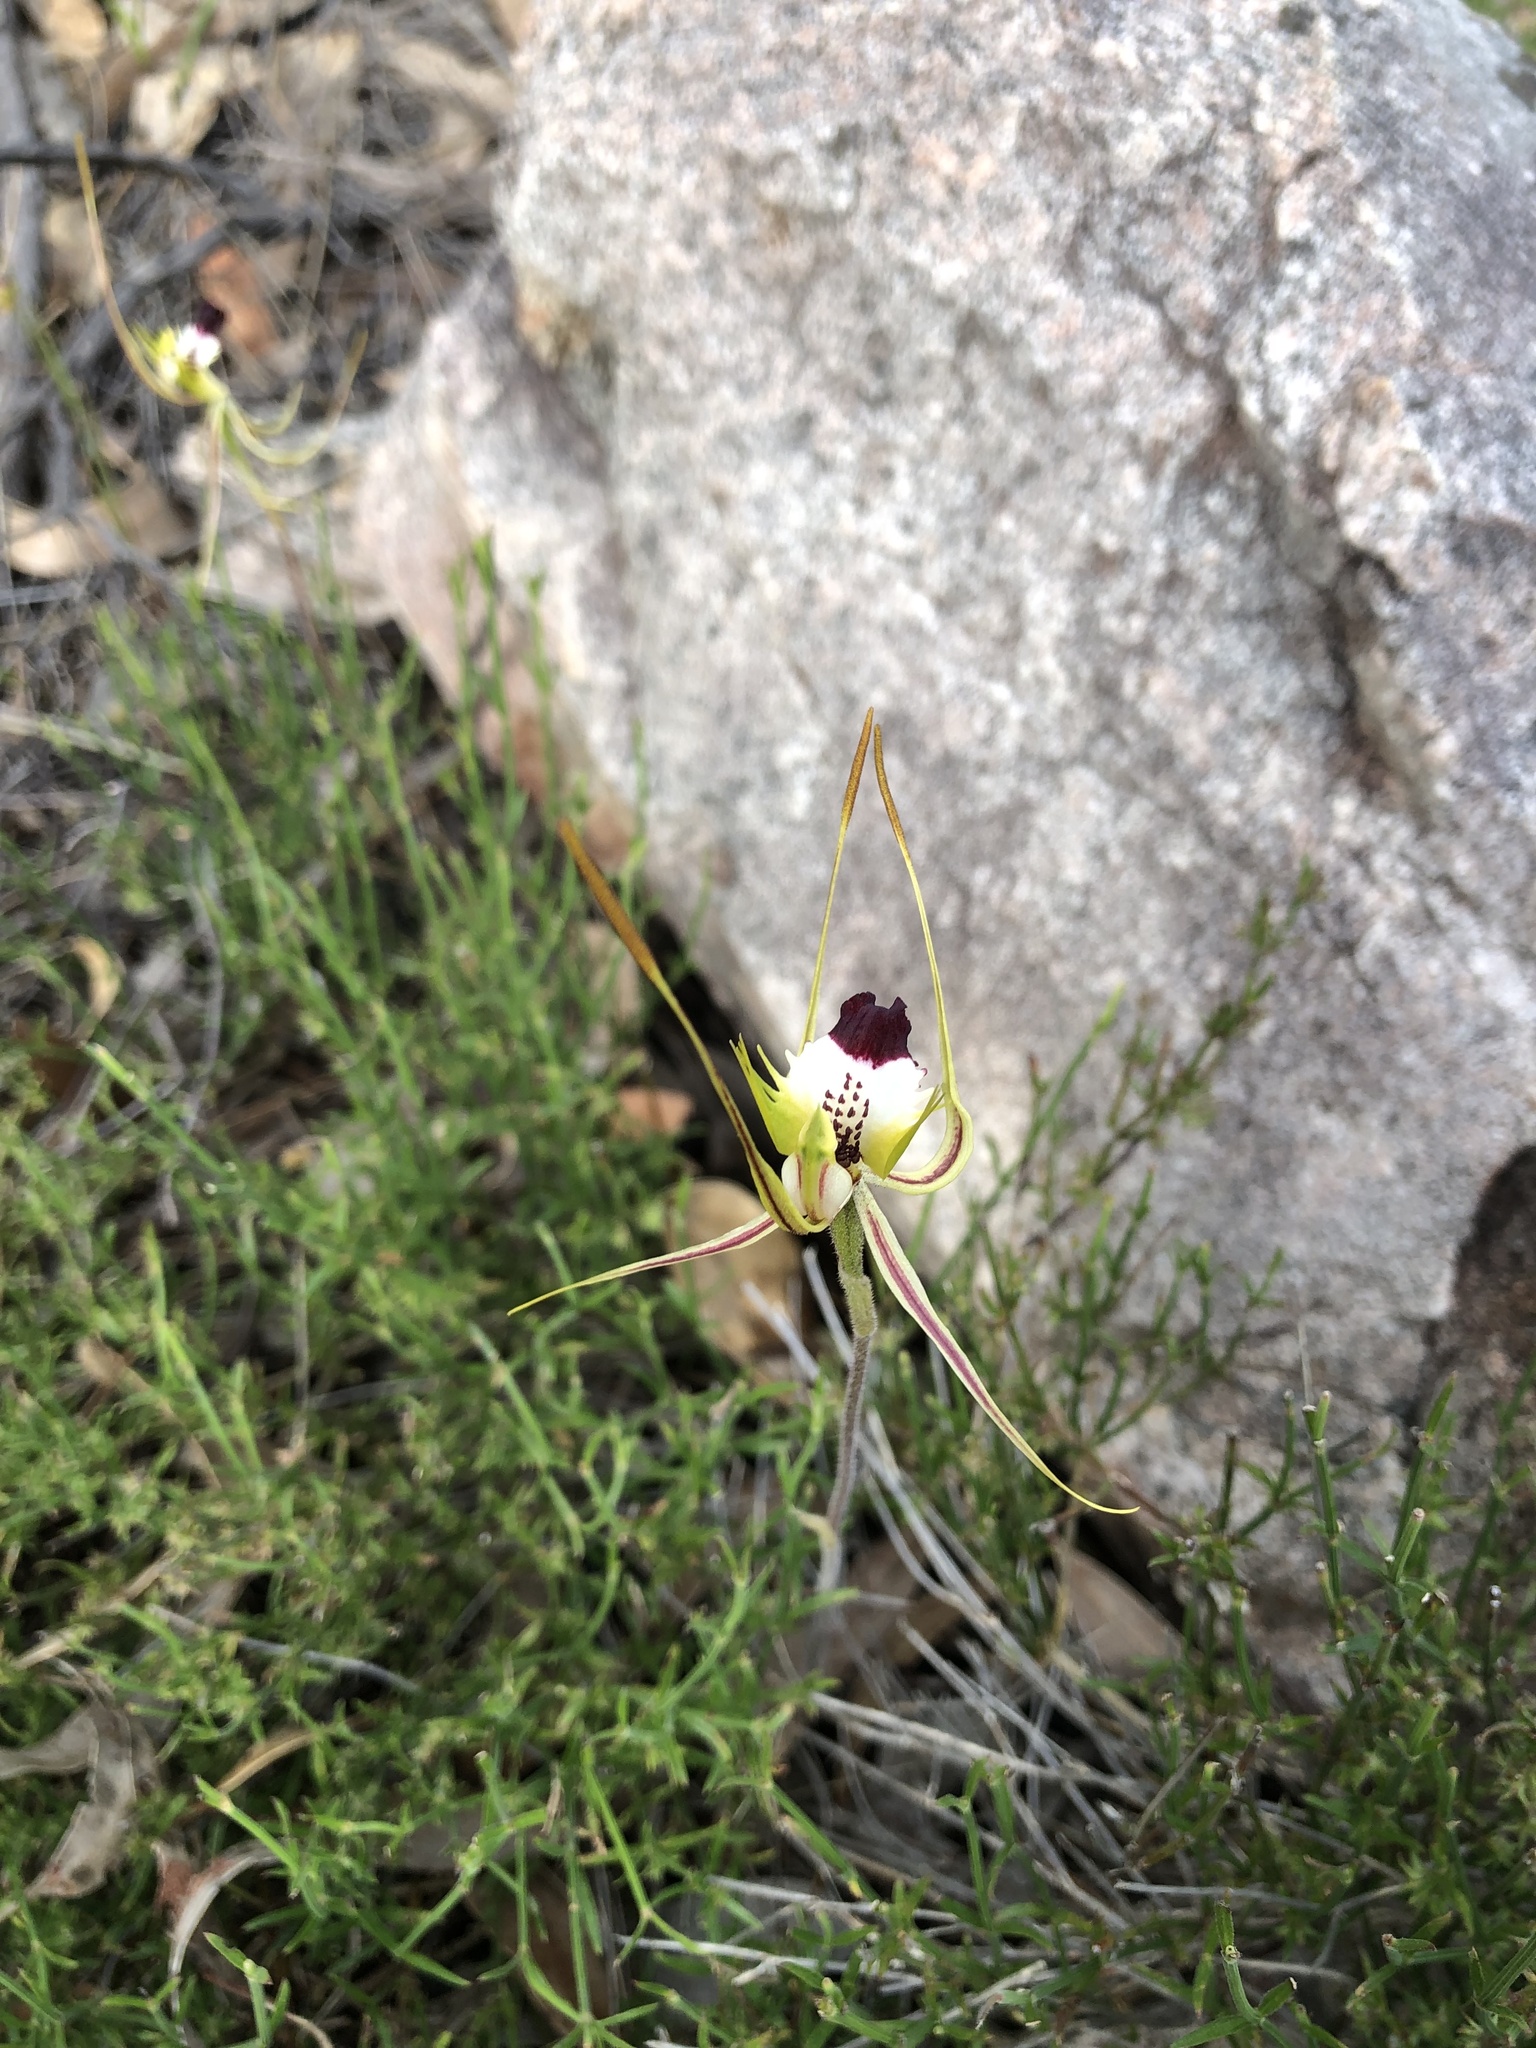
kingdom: Plantae
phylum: Tracheophyta
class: Liliopsida
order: Asparagales
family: Orchidaceae
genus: Caladenia
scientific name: Caladenia tentaculata
